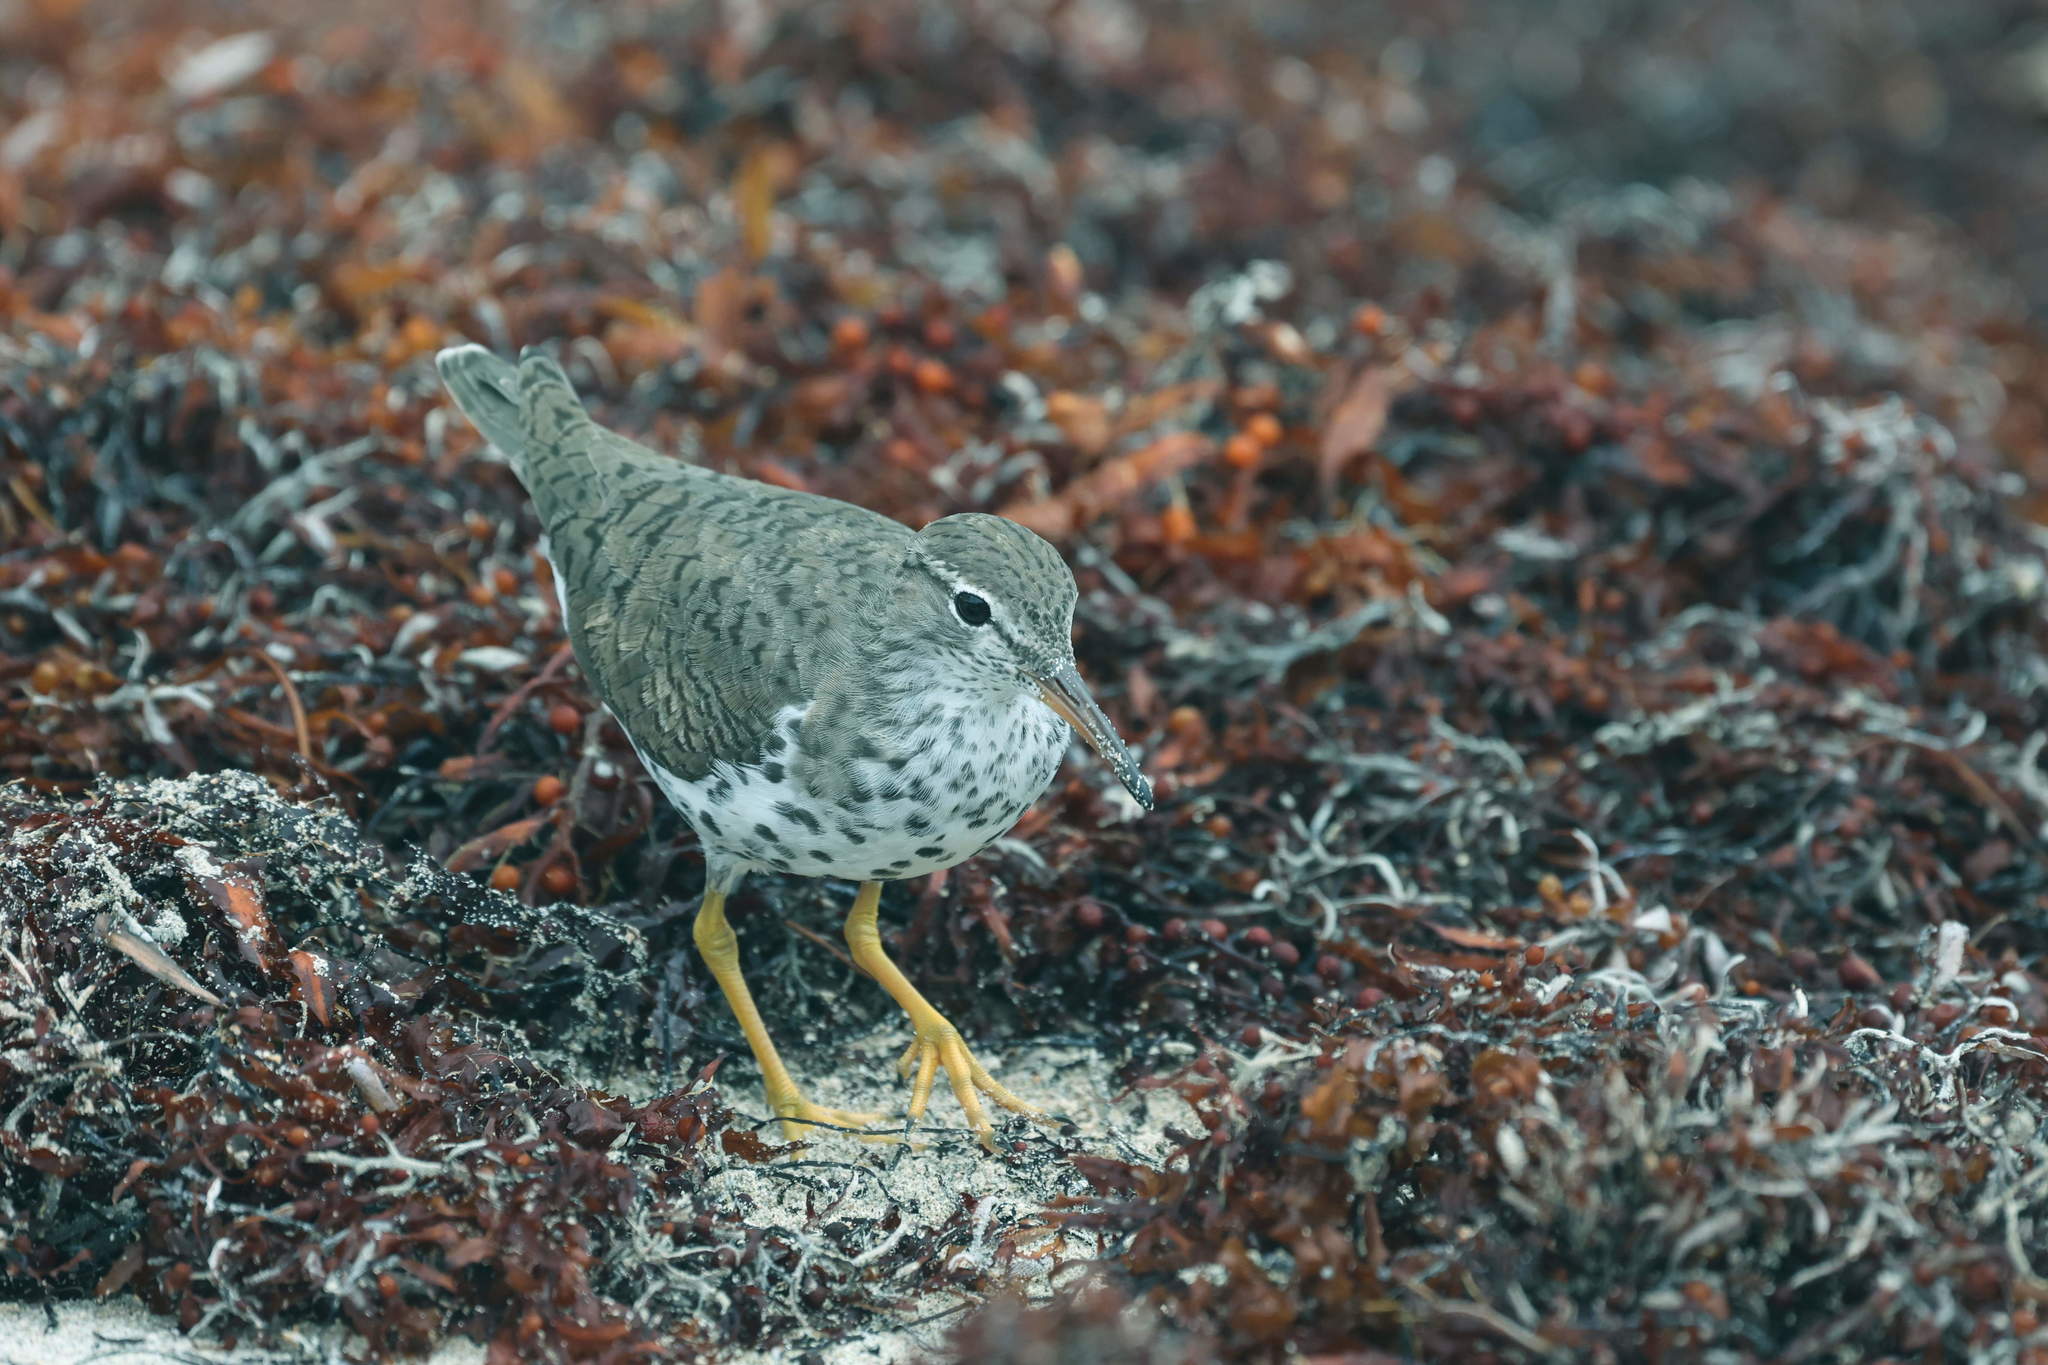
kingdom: Animalia
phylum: Chordata
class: Aves
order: Charadriiformes
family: Scolopacidae
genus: Actitis
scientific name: Actitis macularius
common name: Spotted sandpiper
